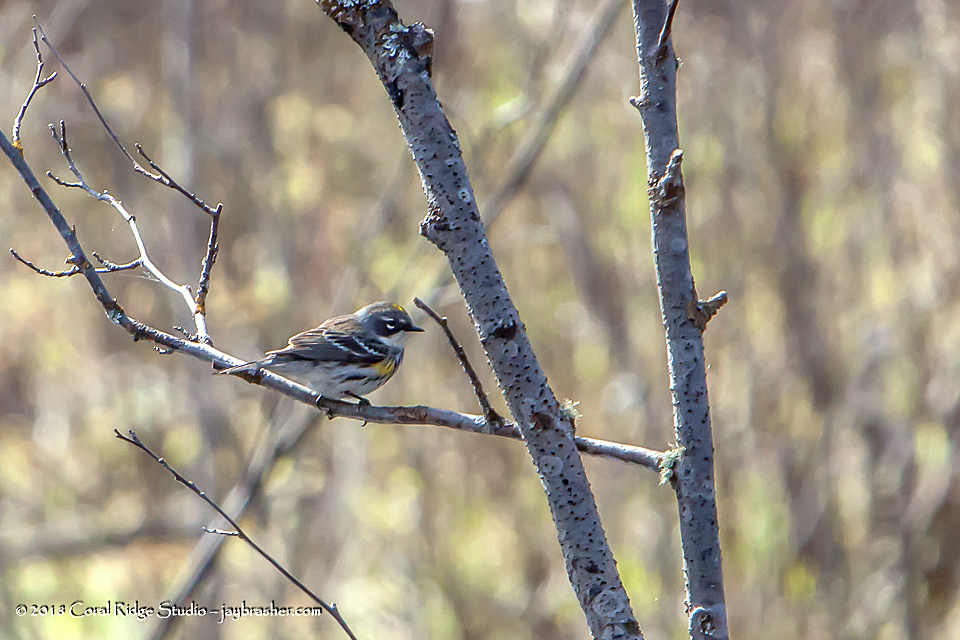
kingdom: Animalia
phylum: Chordata
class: Aves
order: Passeriformes
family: Parulidae
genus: Setophaga
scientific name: Setophaga coronata
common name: Myrtle warbler
